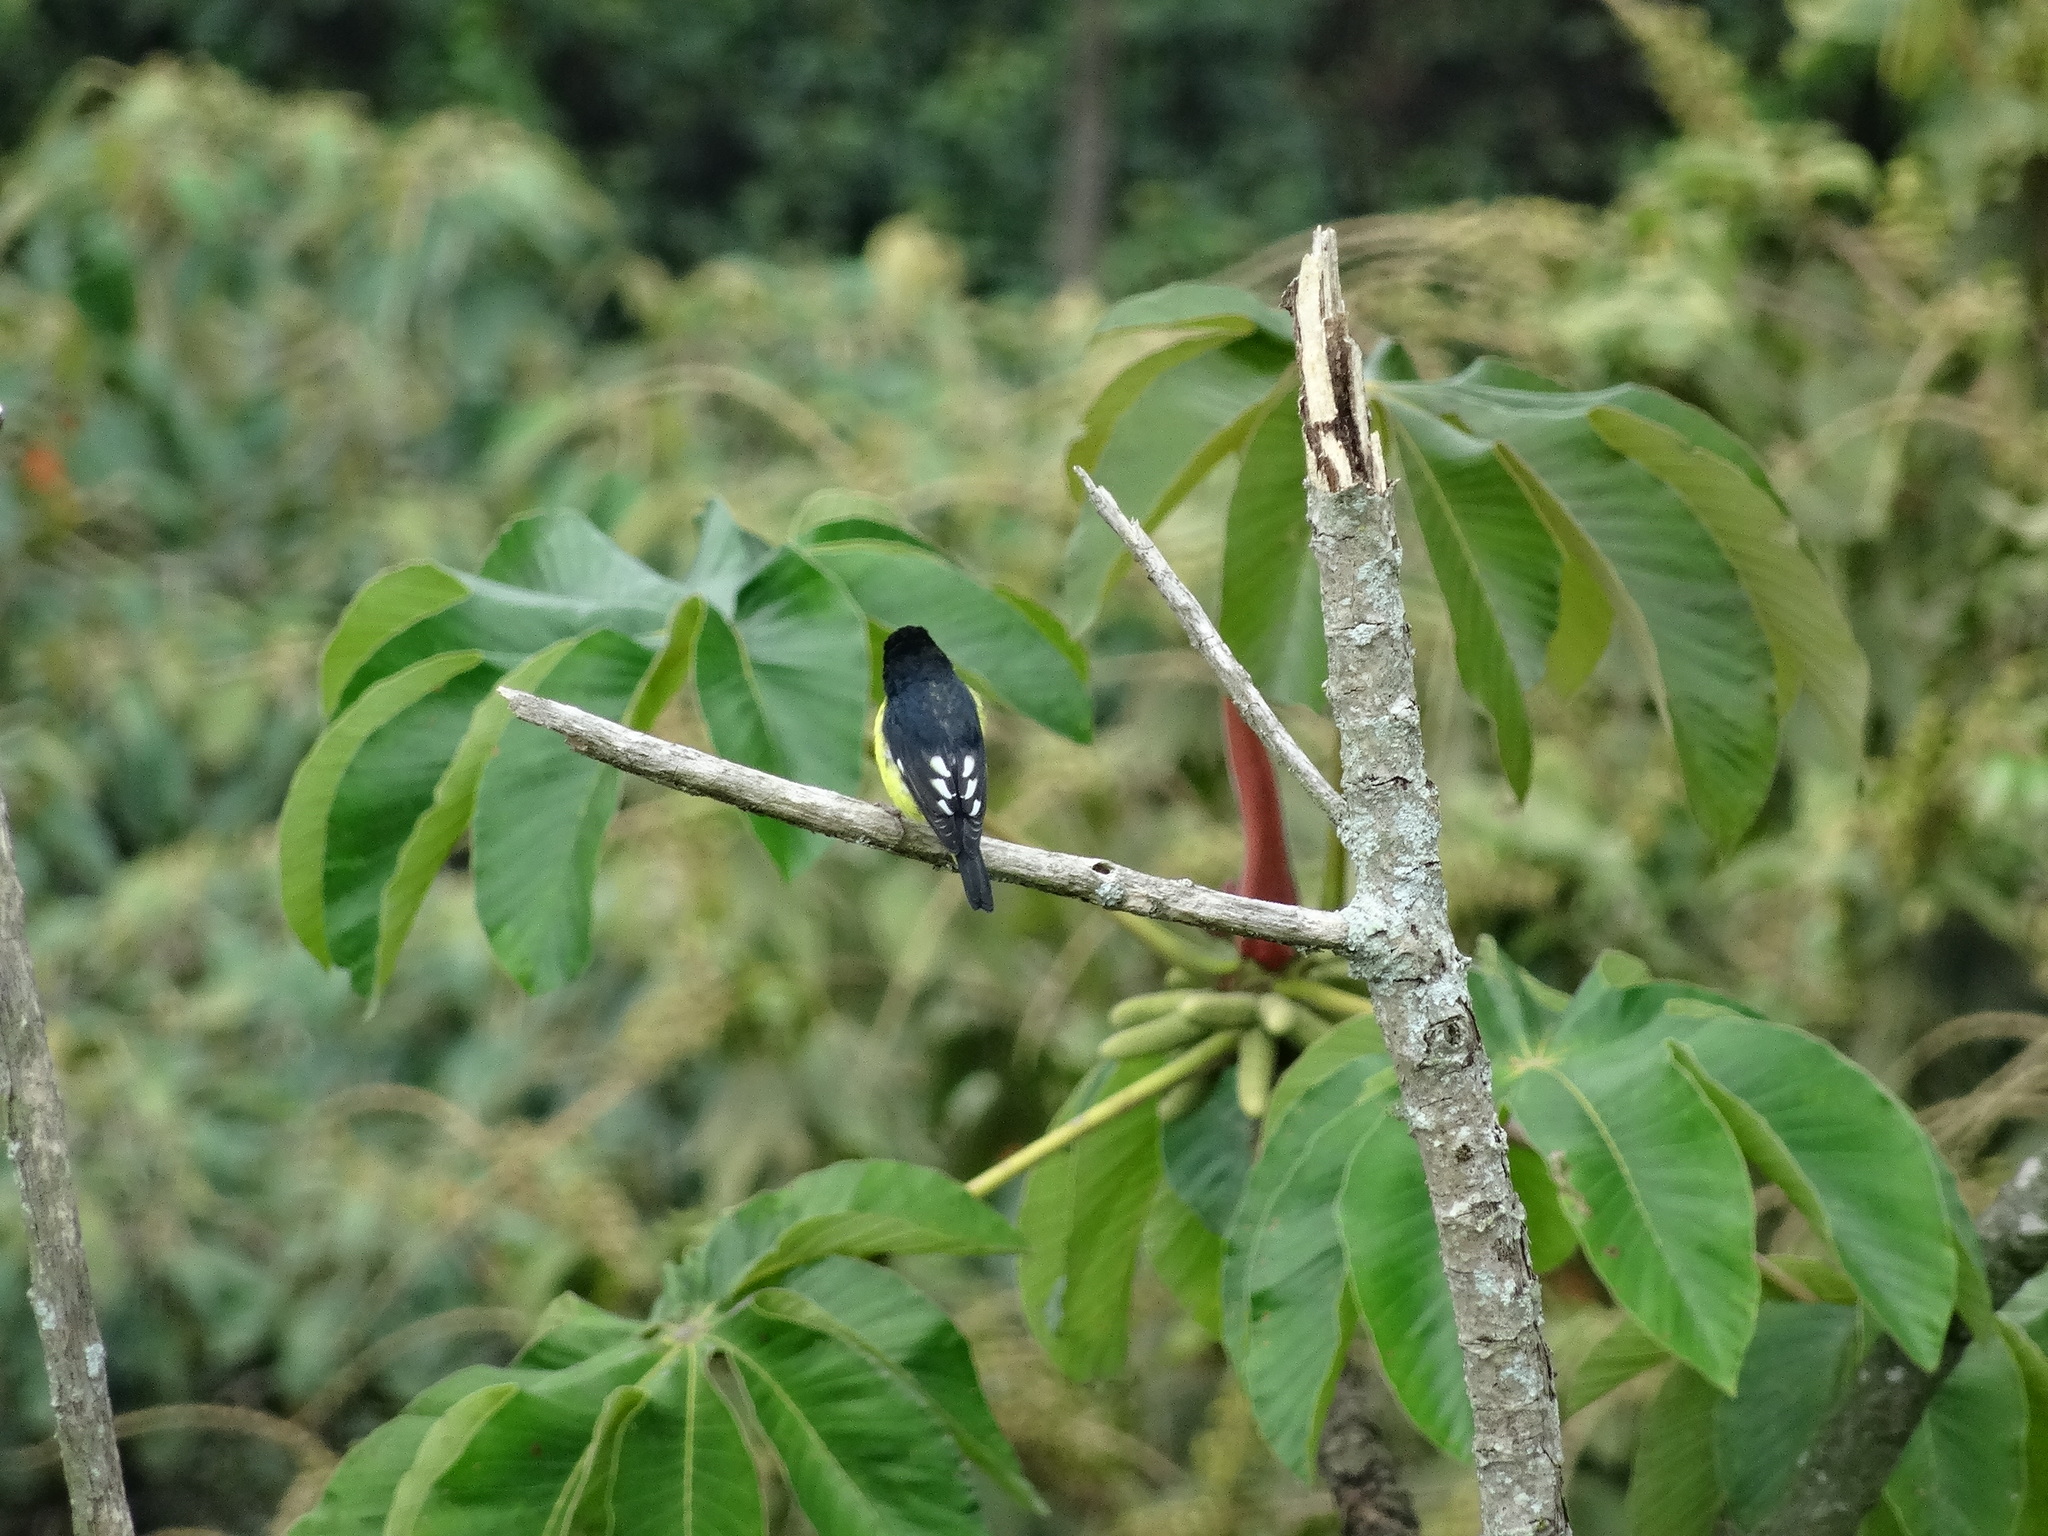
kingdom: Animalia
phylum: Chordata
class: Aves
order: Passeriformes
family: Fringillidae
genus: Spinus
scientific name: Spinus psaltria
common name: Lesser goldfinch
